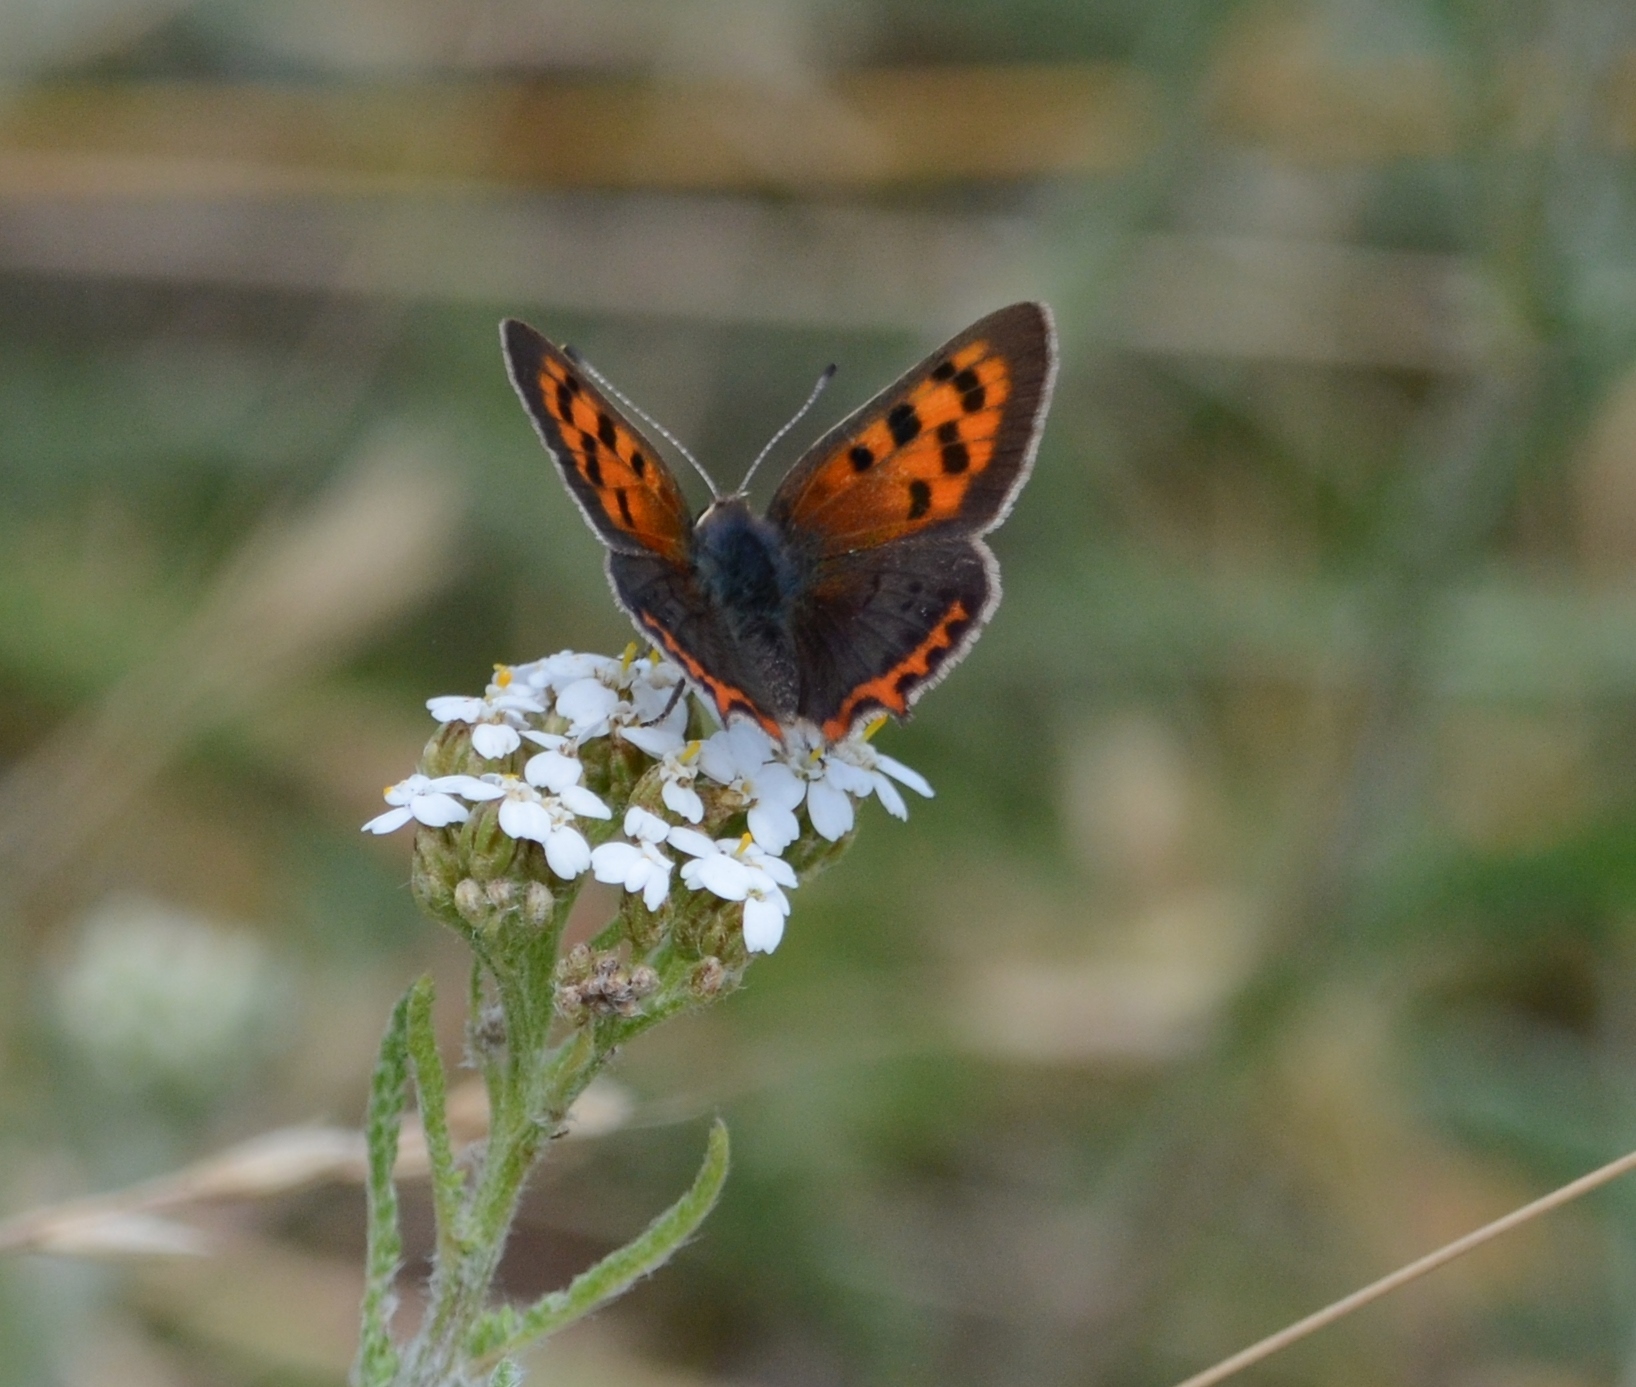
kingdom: Animalia
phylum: Arthropoda
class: Insecta
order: Lepidoptera
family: Lycaenidae
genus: Lycaena
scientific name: Lycaena phlaeas
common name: Small copper
